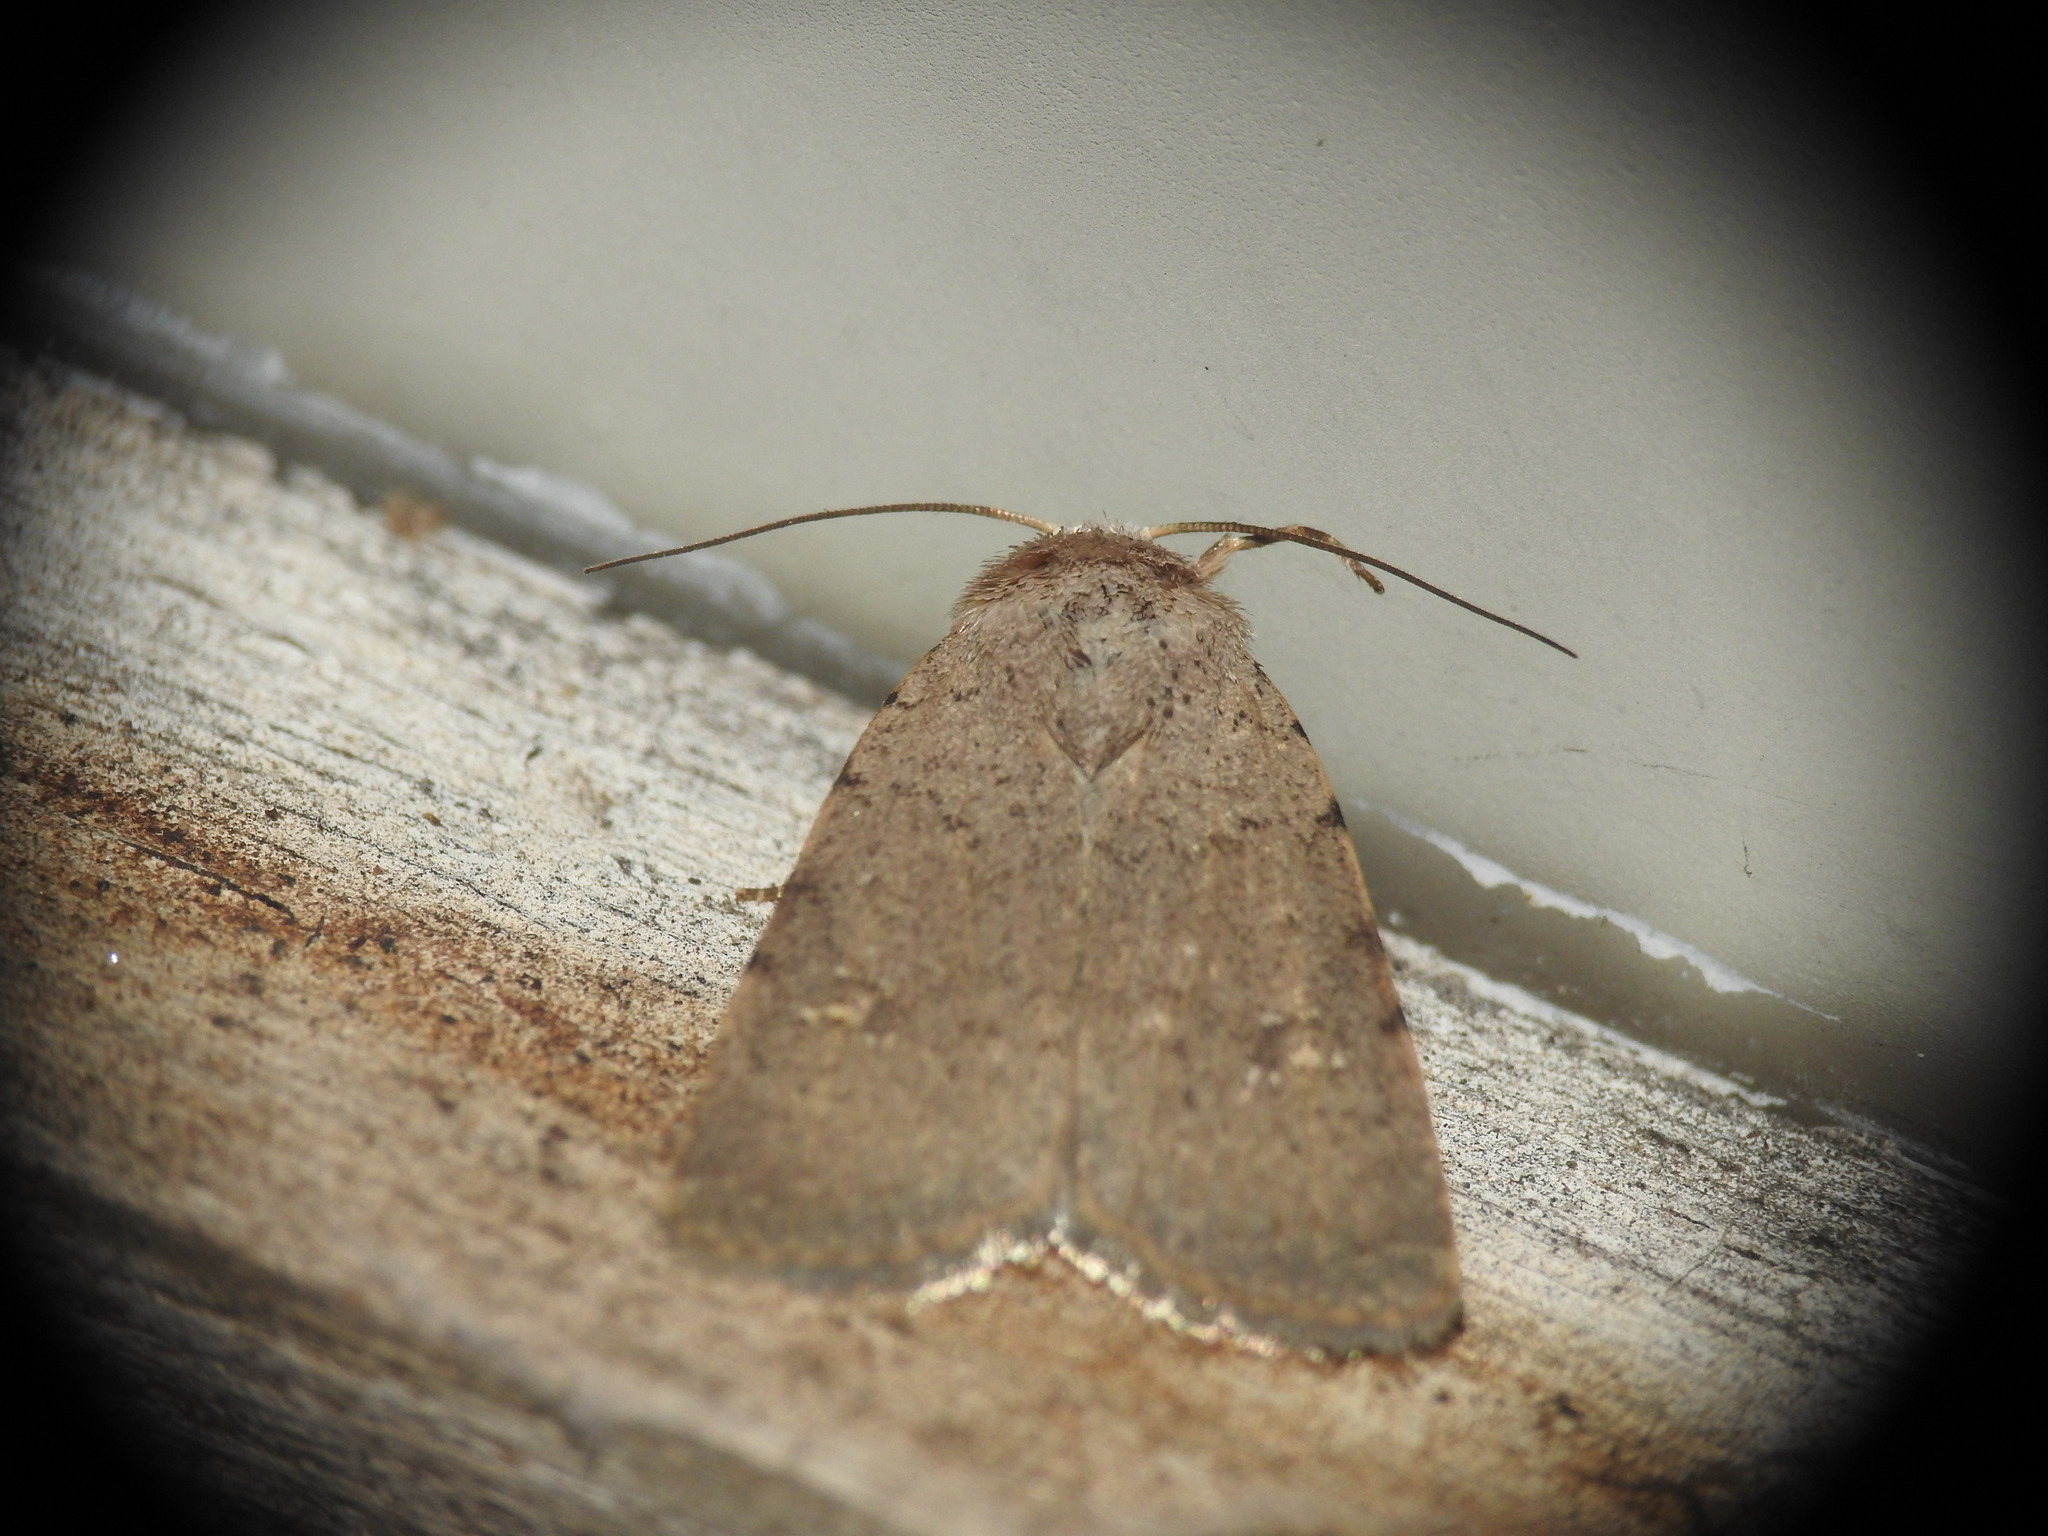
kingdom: Animalia
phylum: Arthropoda
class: Insecta
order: Lepidoptera
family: Noctuidae
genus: Caradrina
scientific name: Caradrina flavirena
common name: Lorimer's rustic
